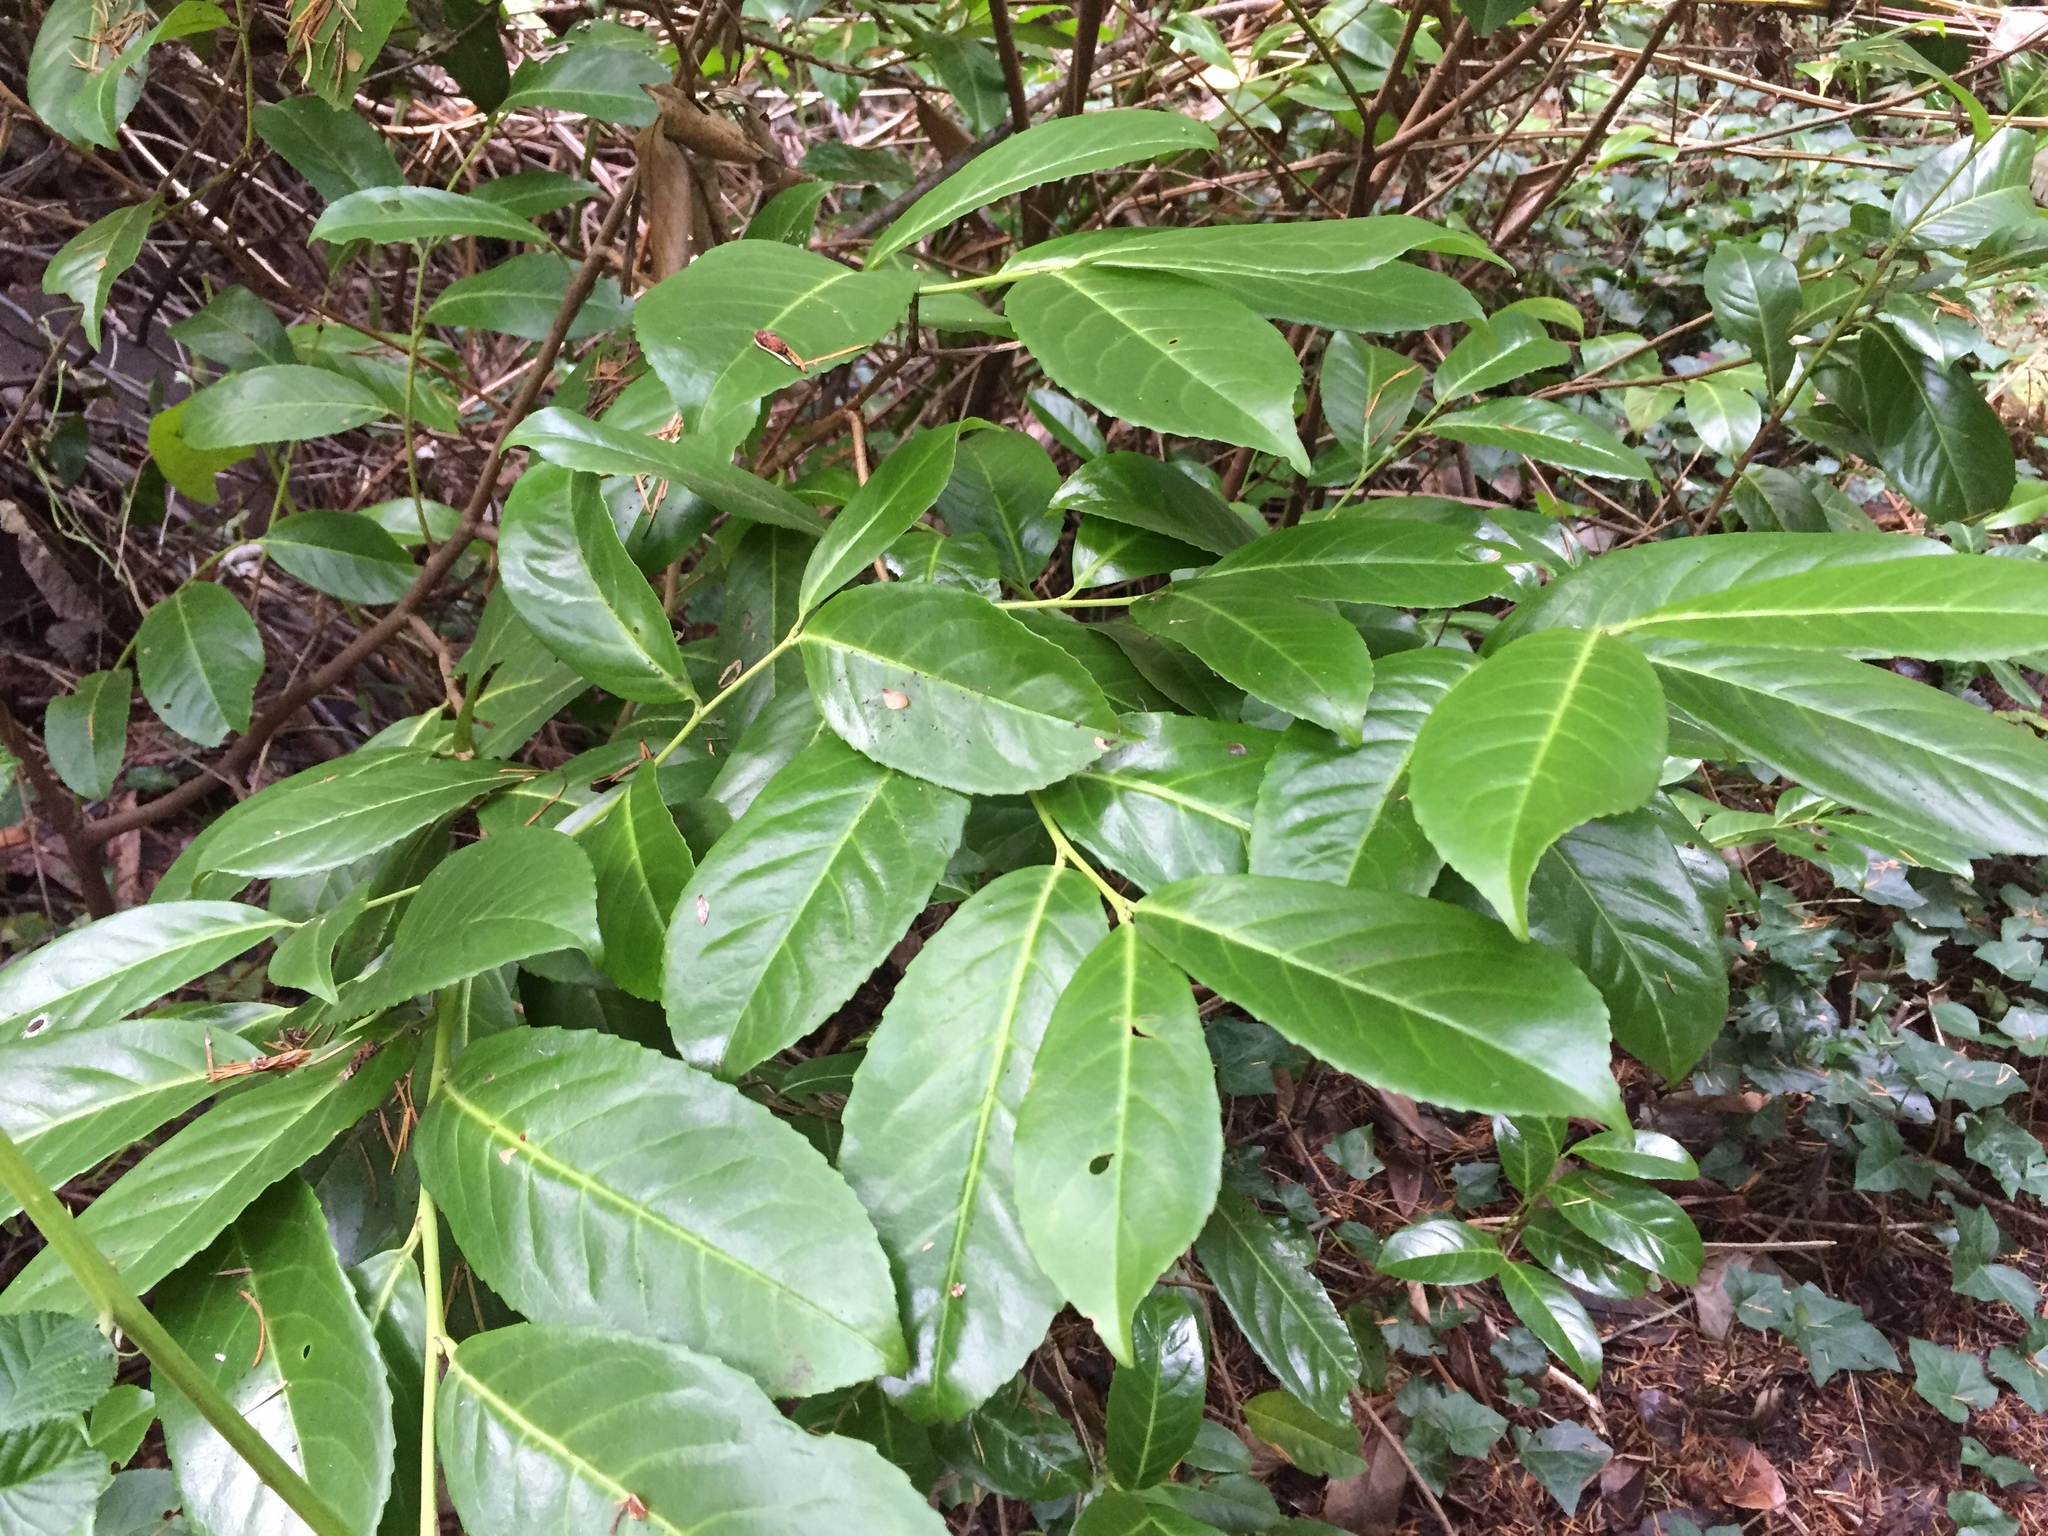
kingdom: Plantae
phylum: Tracheophyta
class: Magnoliopsida
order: Rosales
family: Rosaceae
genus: Prunus
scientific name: Prunus laurocerasus
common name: Cherry laurel
